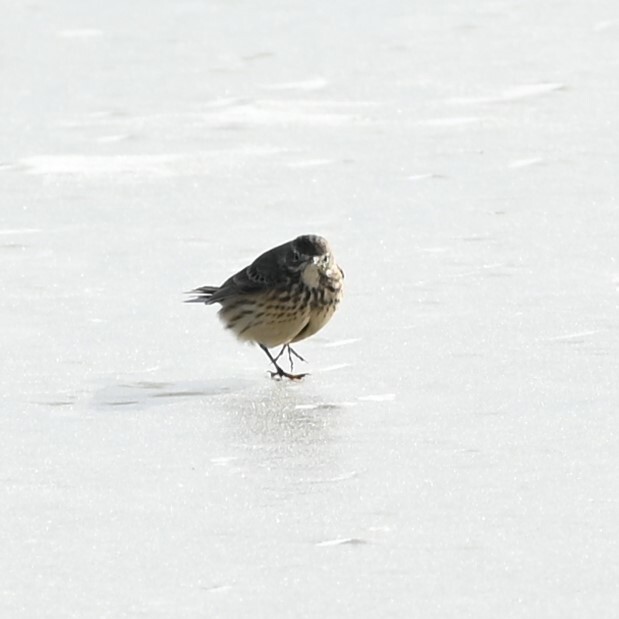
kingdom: Animalia
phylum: Chordata
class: Aves
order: Passeriformes
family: Motacillidae
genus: Anthus
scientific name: Anthus rubescens
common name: Buff-bellied pipit
